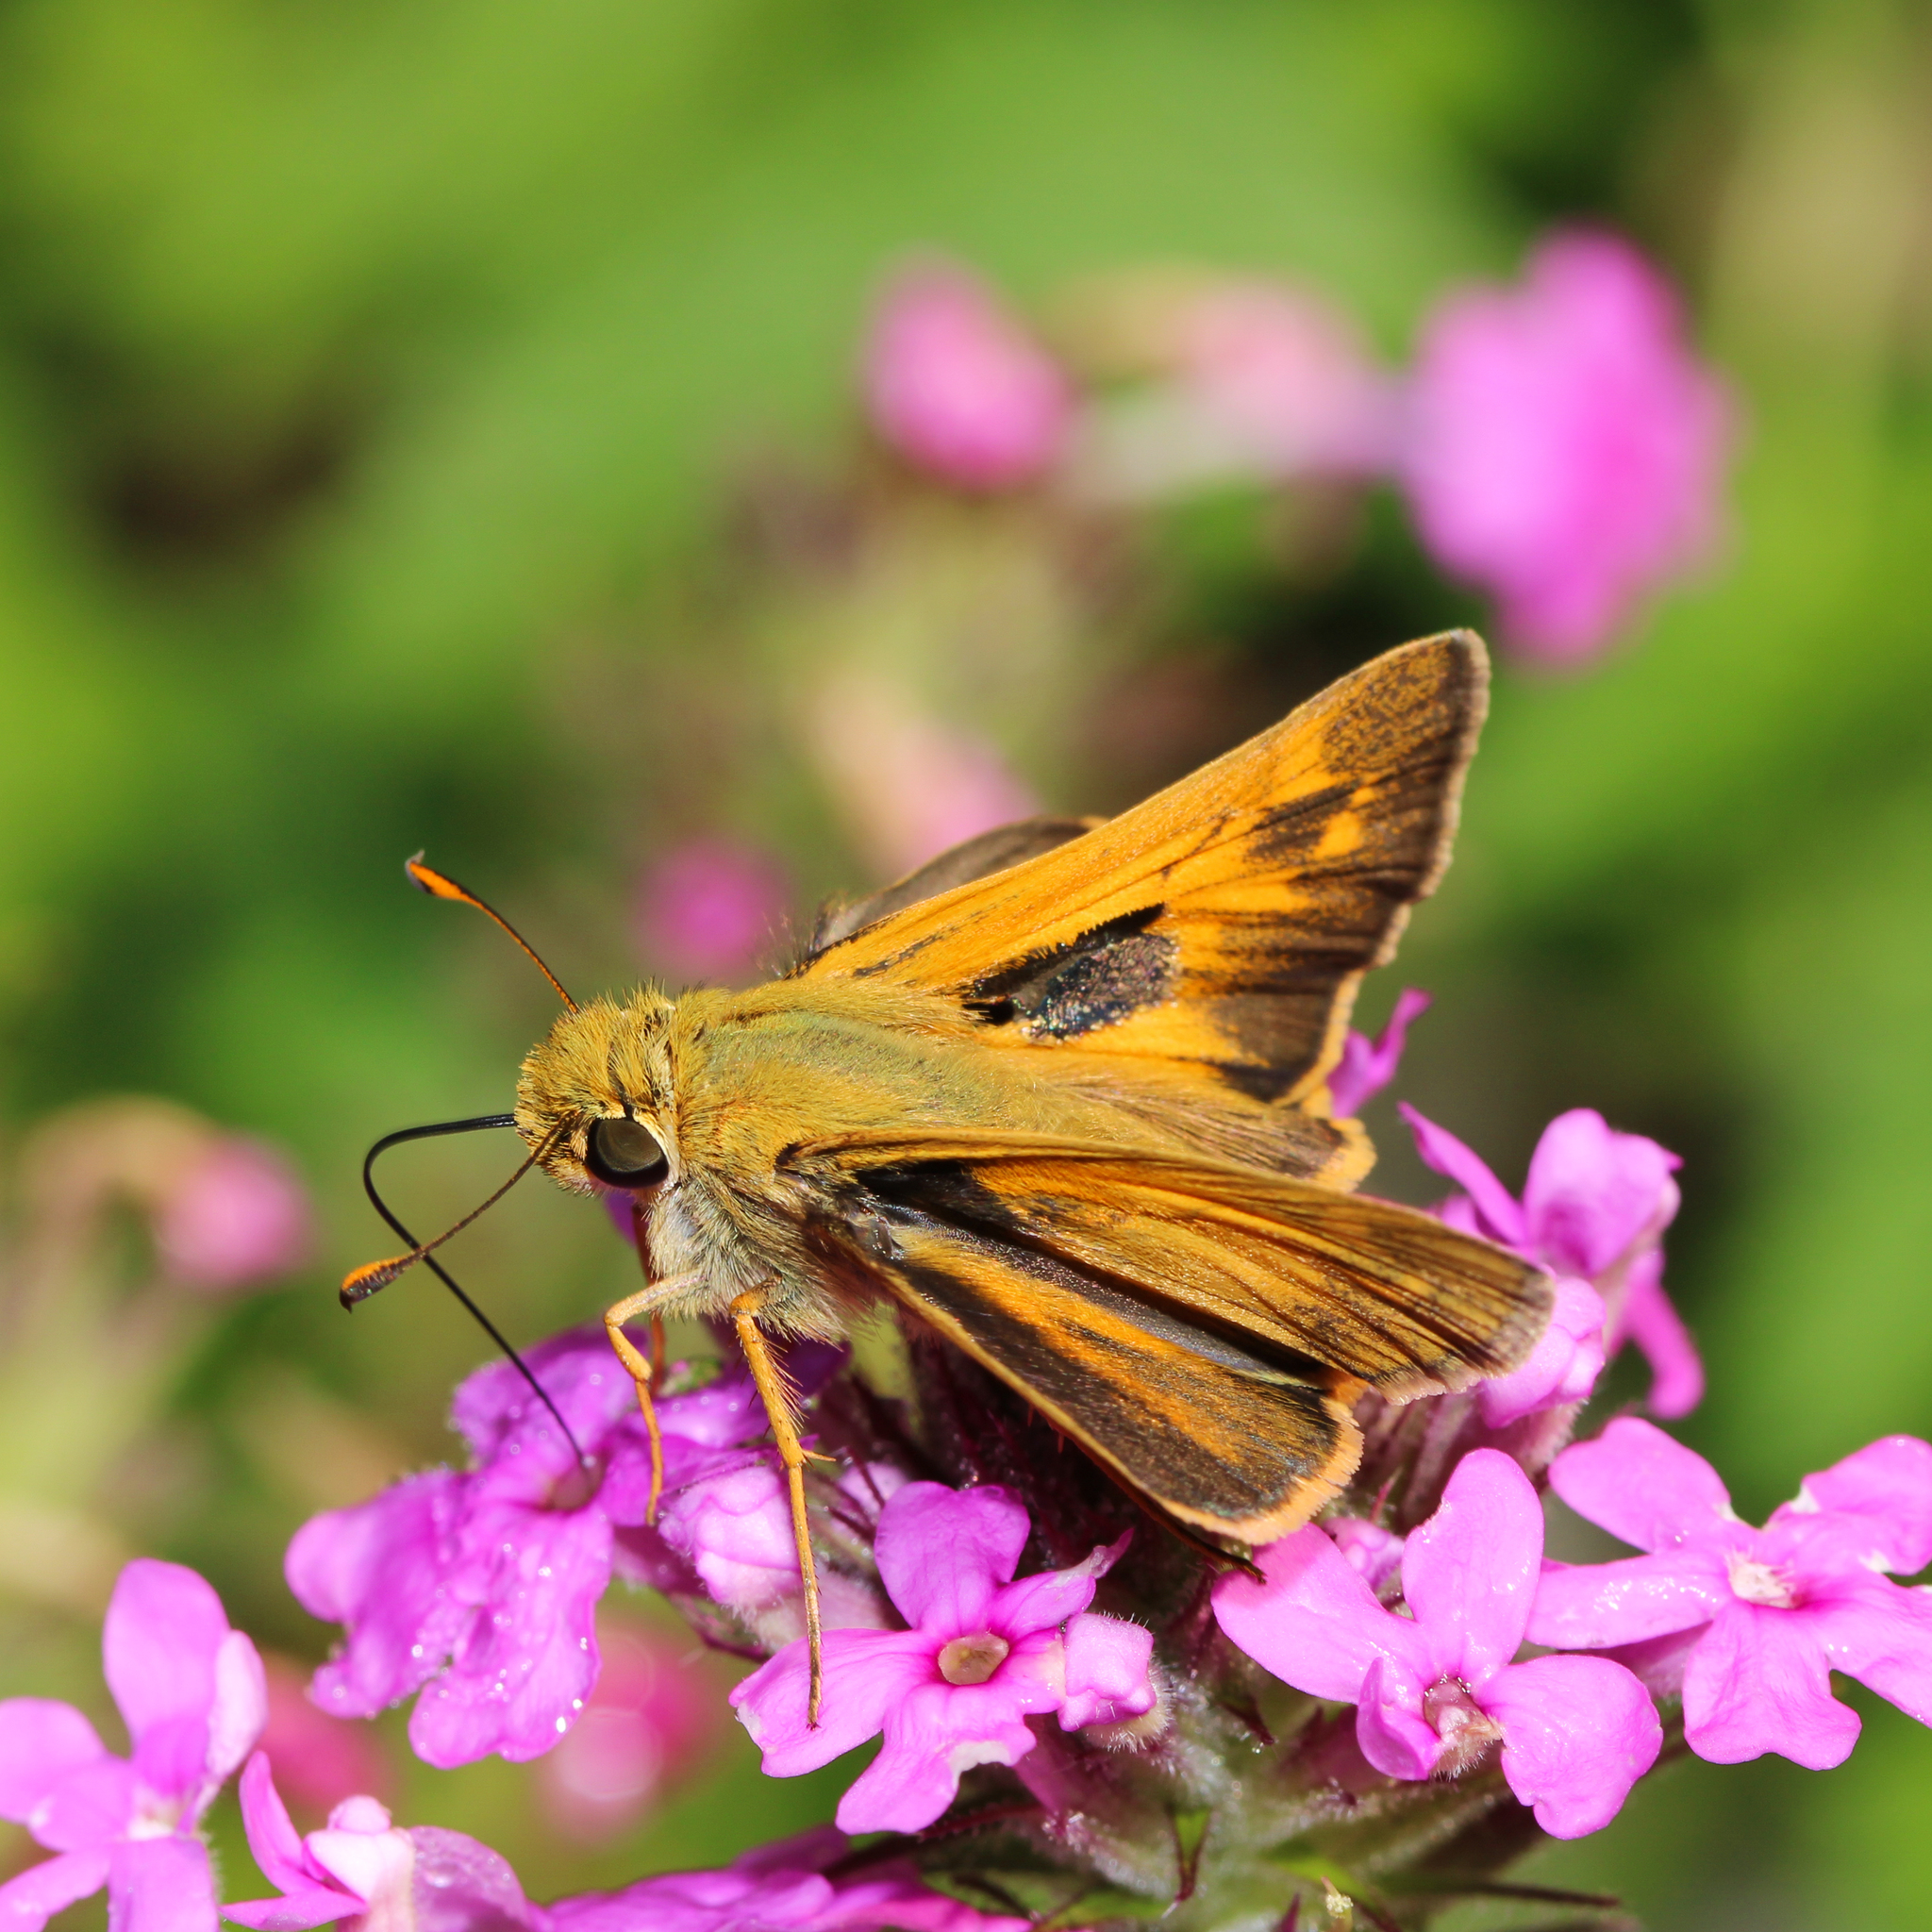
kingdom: Animalia
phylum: Arthropoda
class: Insecta
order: Lepidoptera
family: Hesperiidae
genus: Atalopedes
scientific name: Atalopedes
